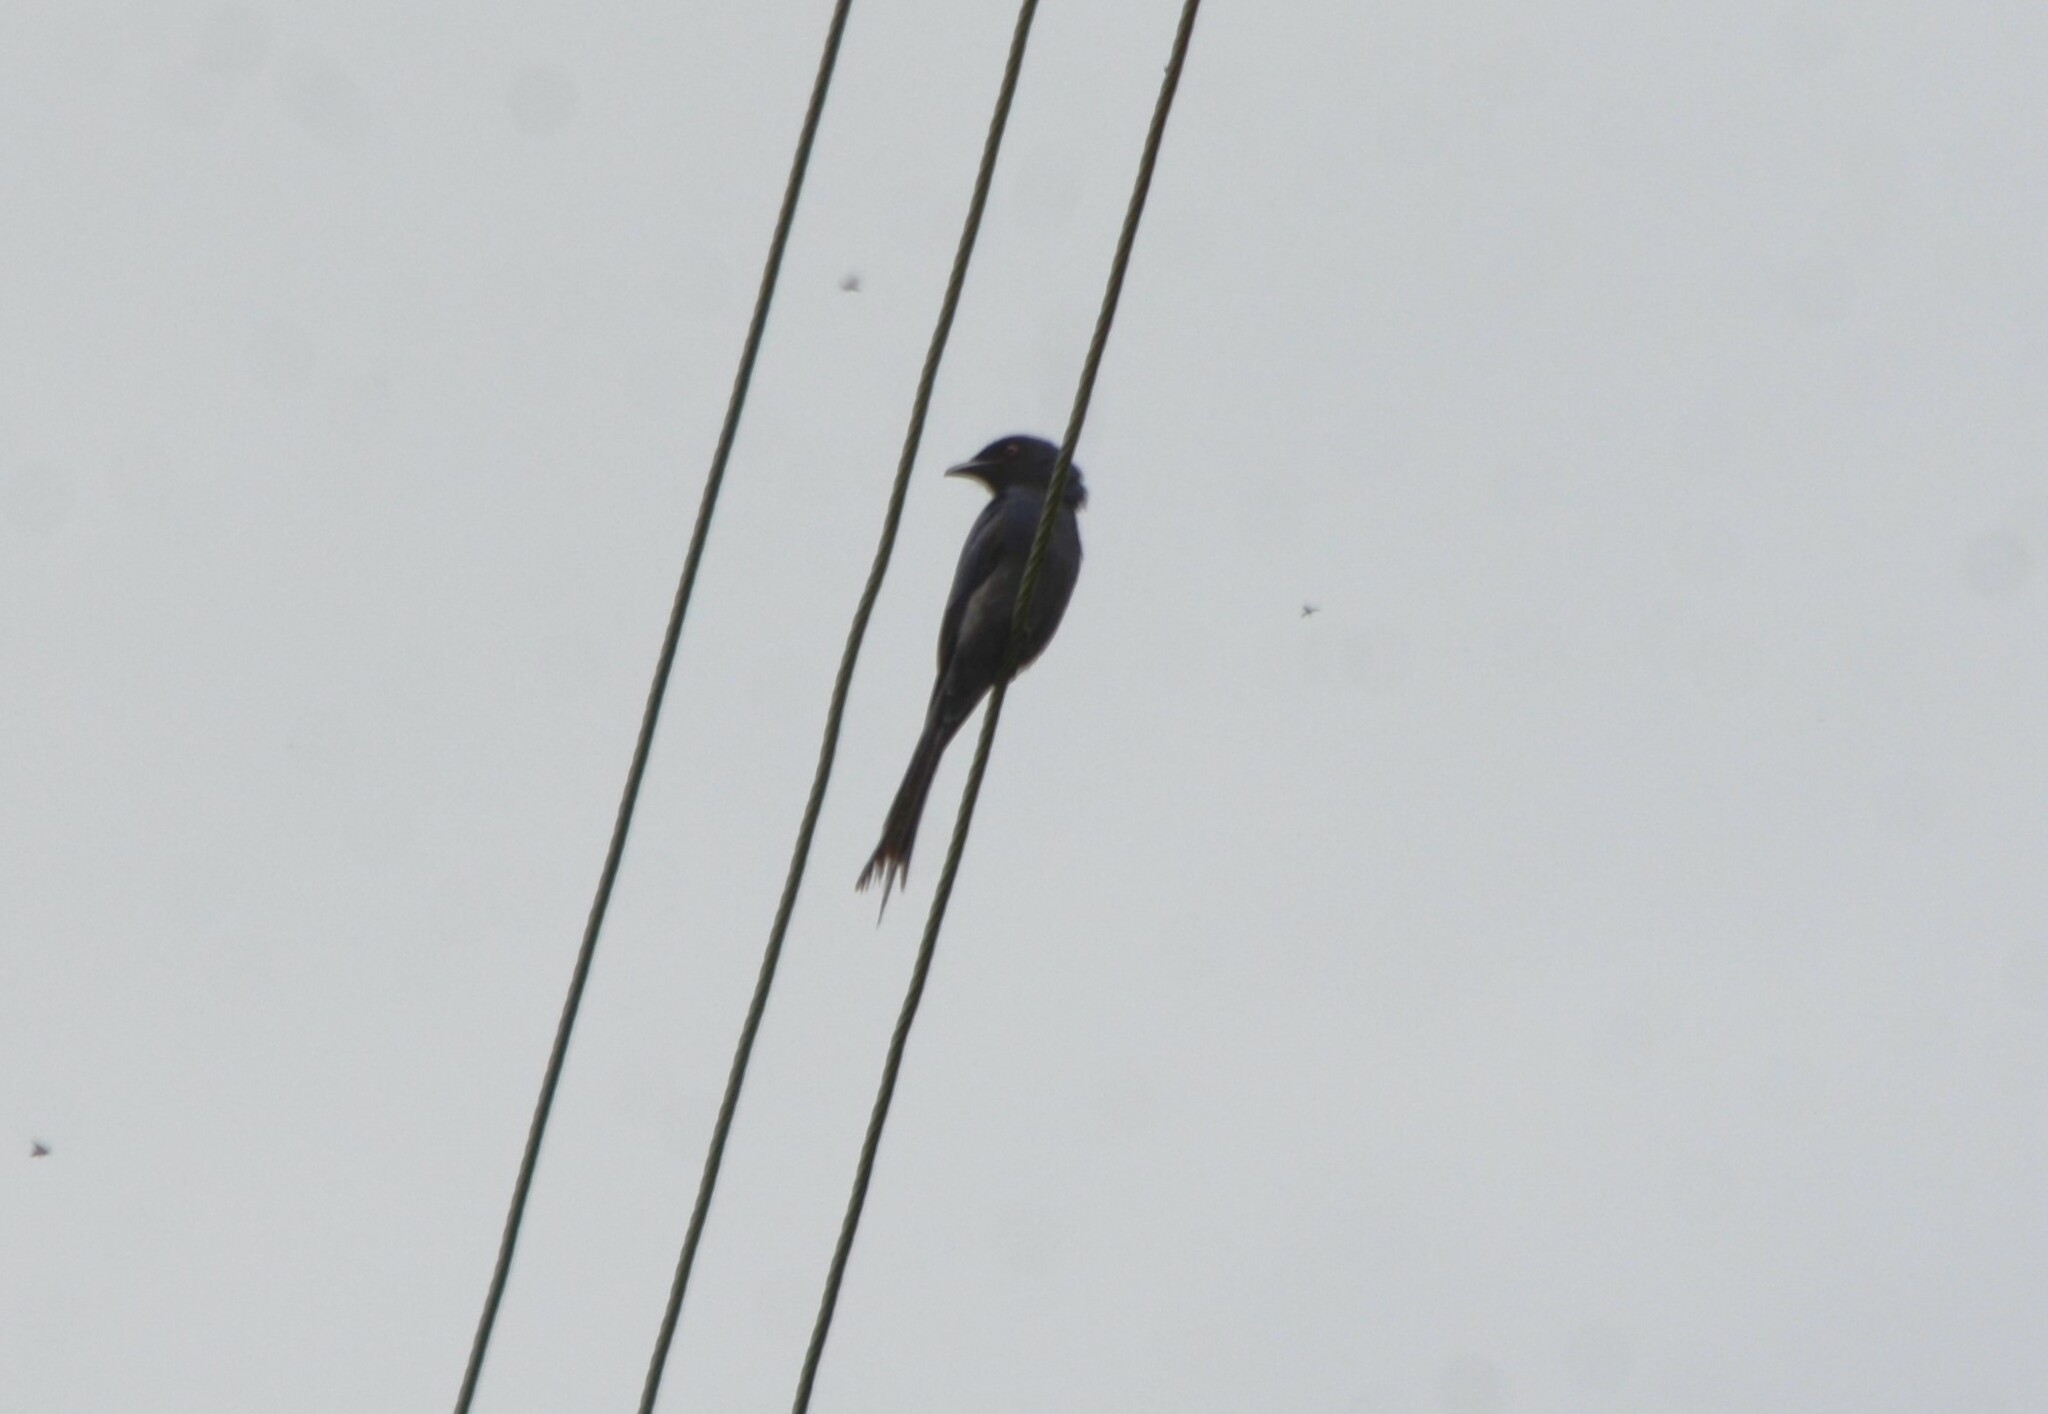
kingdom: Animalia
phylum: Chordata
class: Aves
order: Passeriformes
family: Dicruridae
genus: Dicrurus
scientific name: Dicrurus macrocercus
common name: Black drongo
